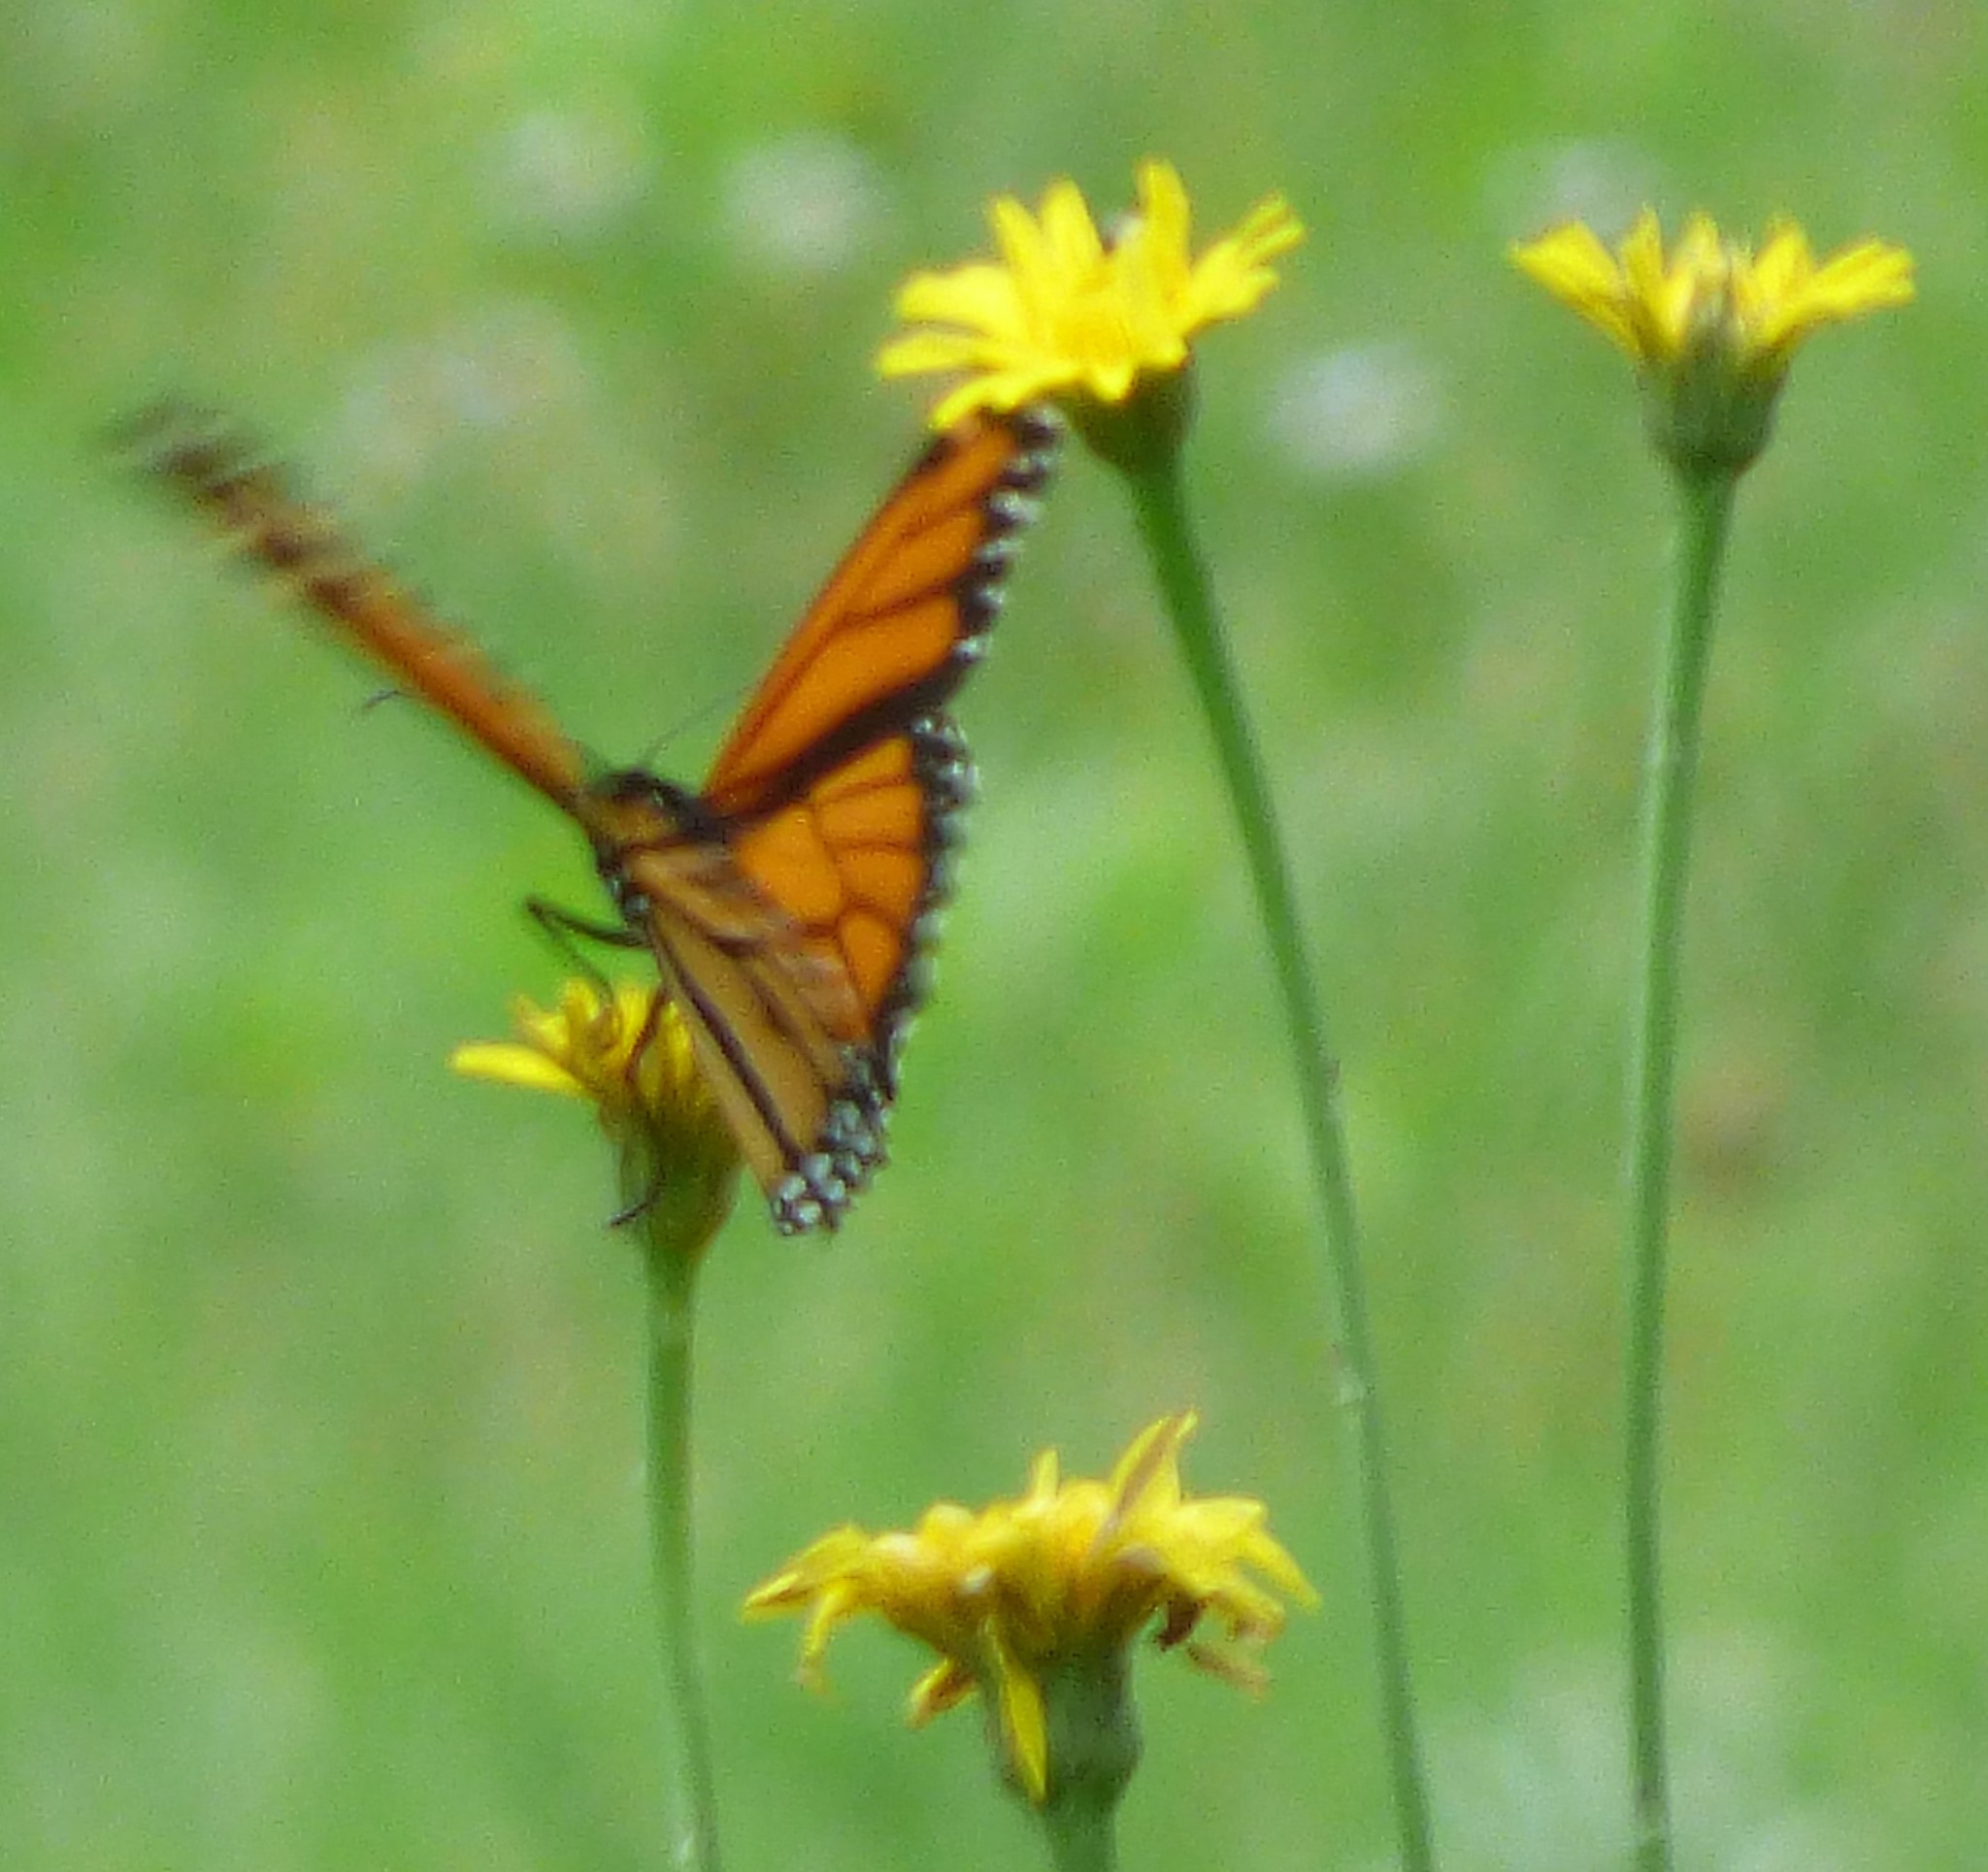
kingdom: Animalia
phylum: Arthropoda
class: Insecta
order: Lepidoptera
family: Nymphalidae
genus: Danaus
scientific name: Danaus plexippus
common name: Monarch
